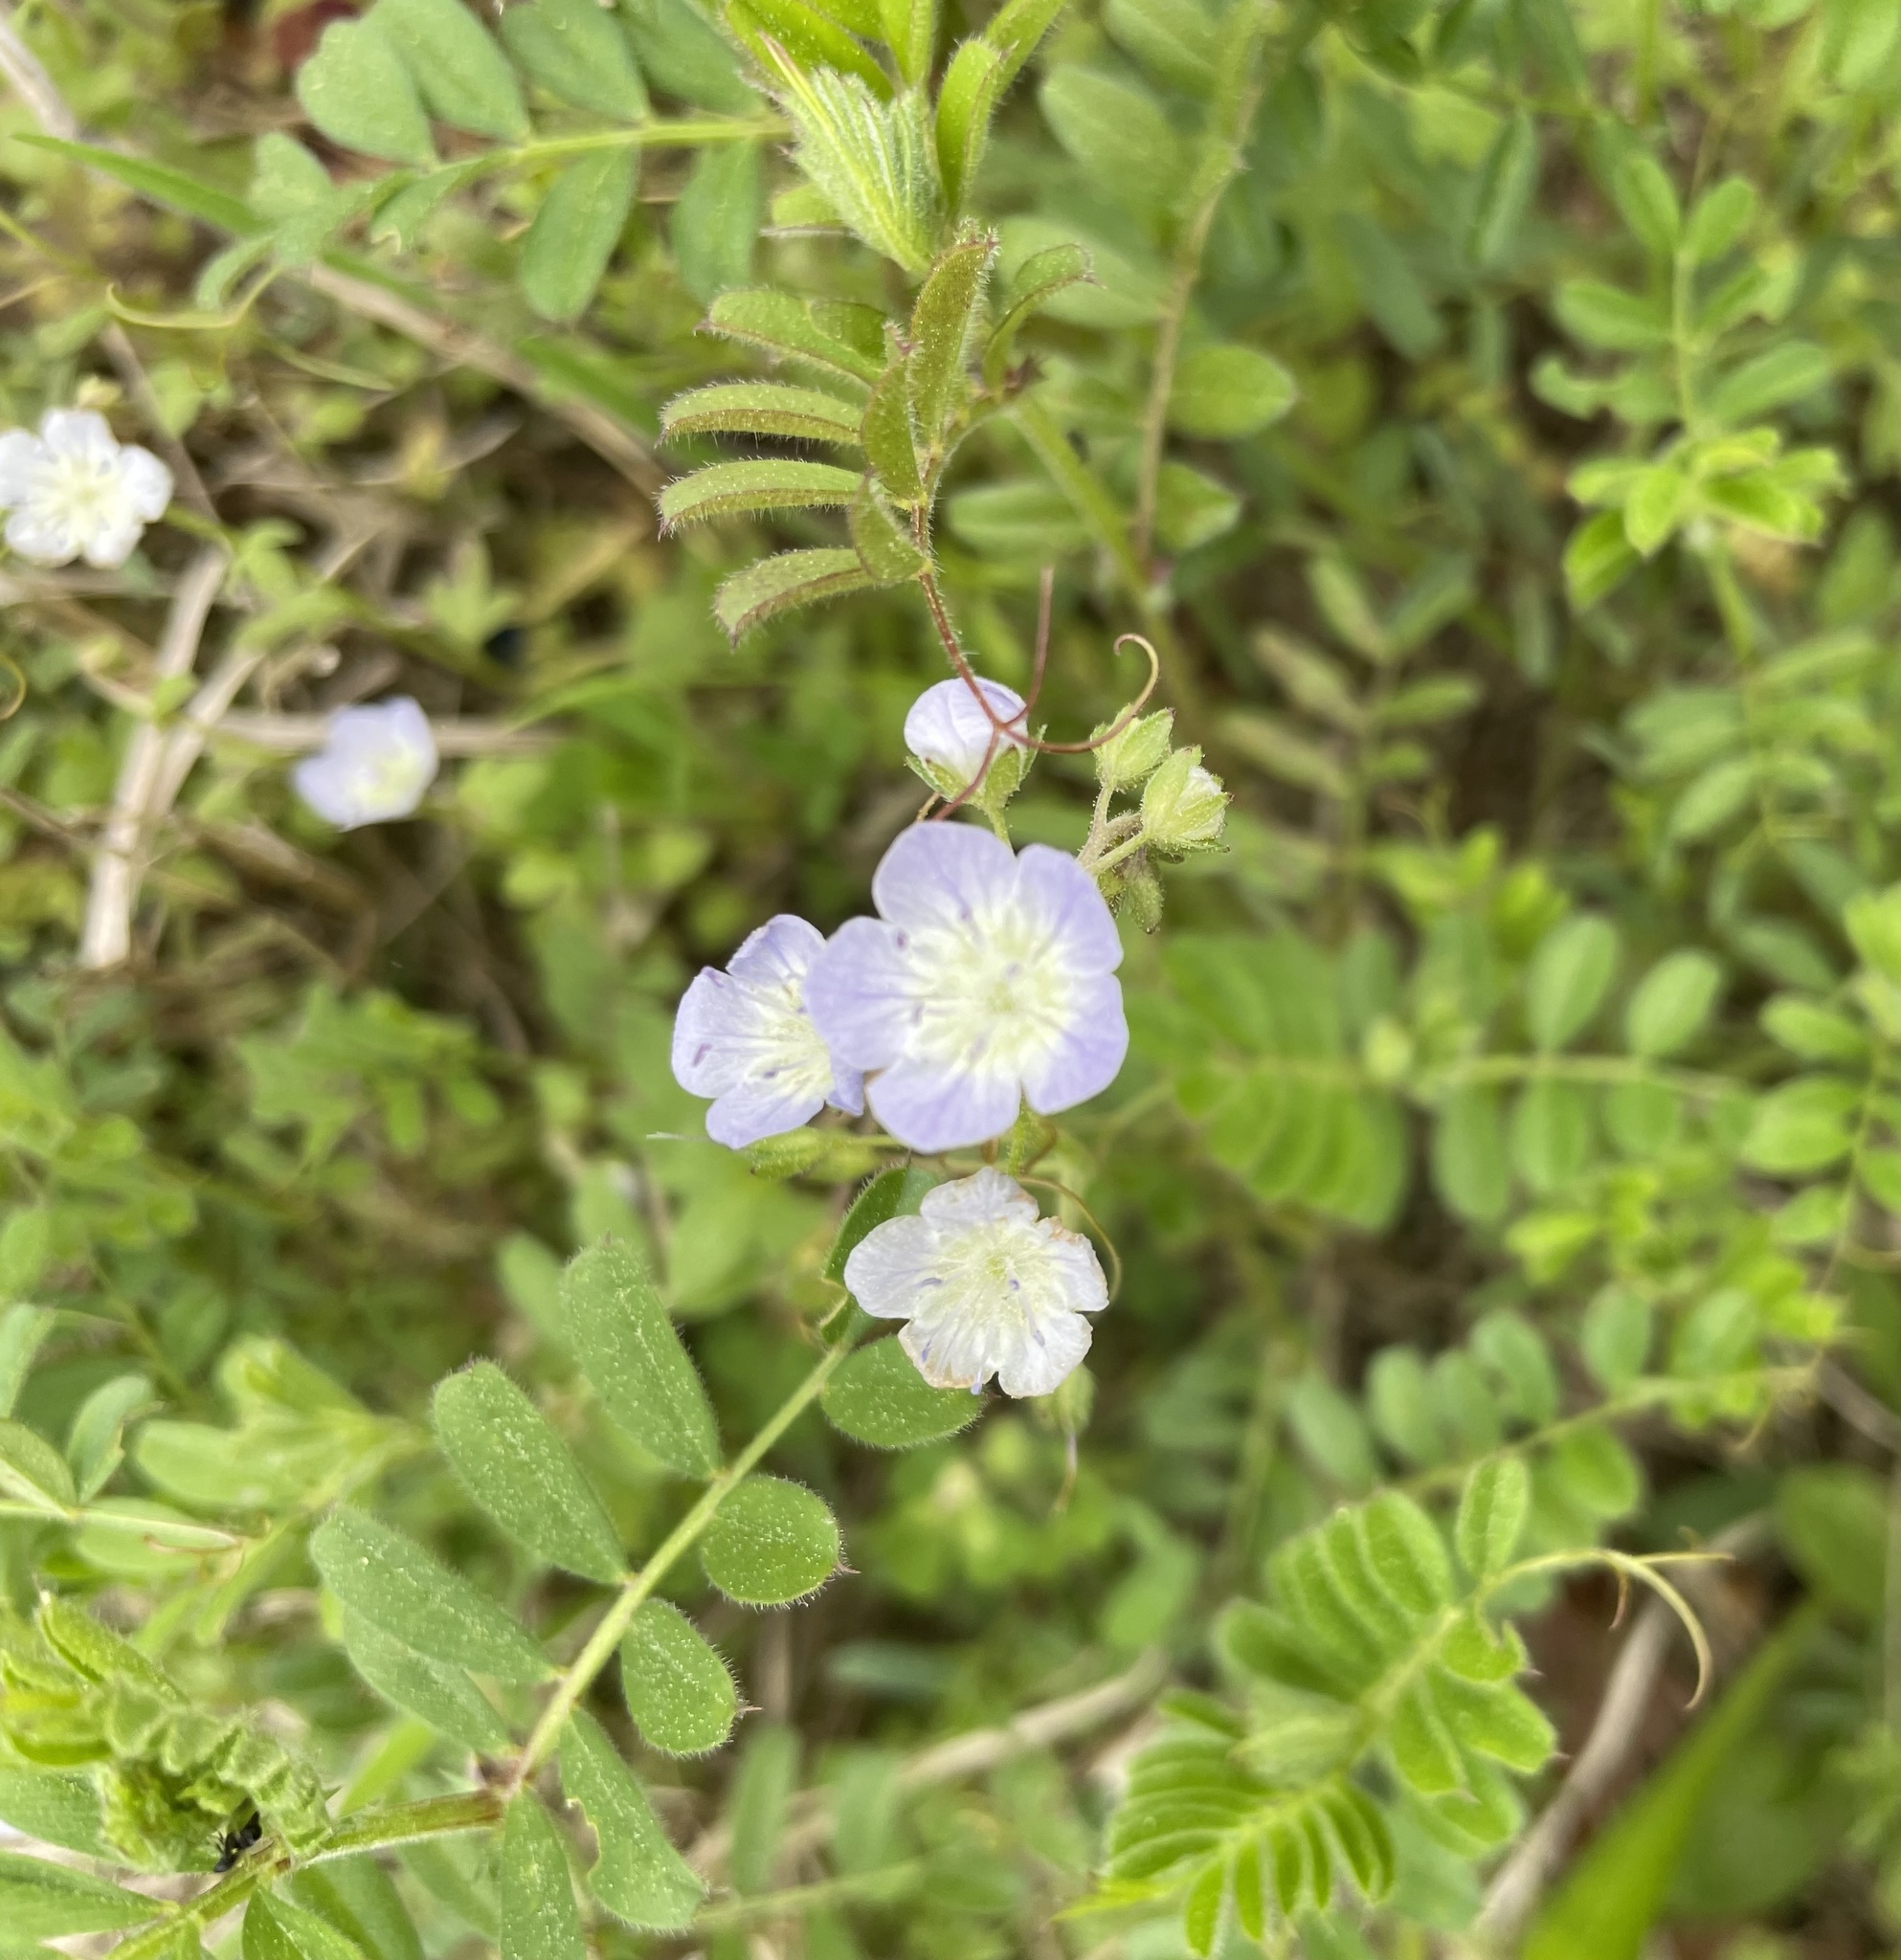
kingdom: Plantae
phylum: Tracheophyta
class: Magnoliopsida
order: Boraginales
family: Hydrophyllaceae
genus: Phacelia
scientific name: Phacelia dubia
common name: Appalachian phacelia
